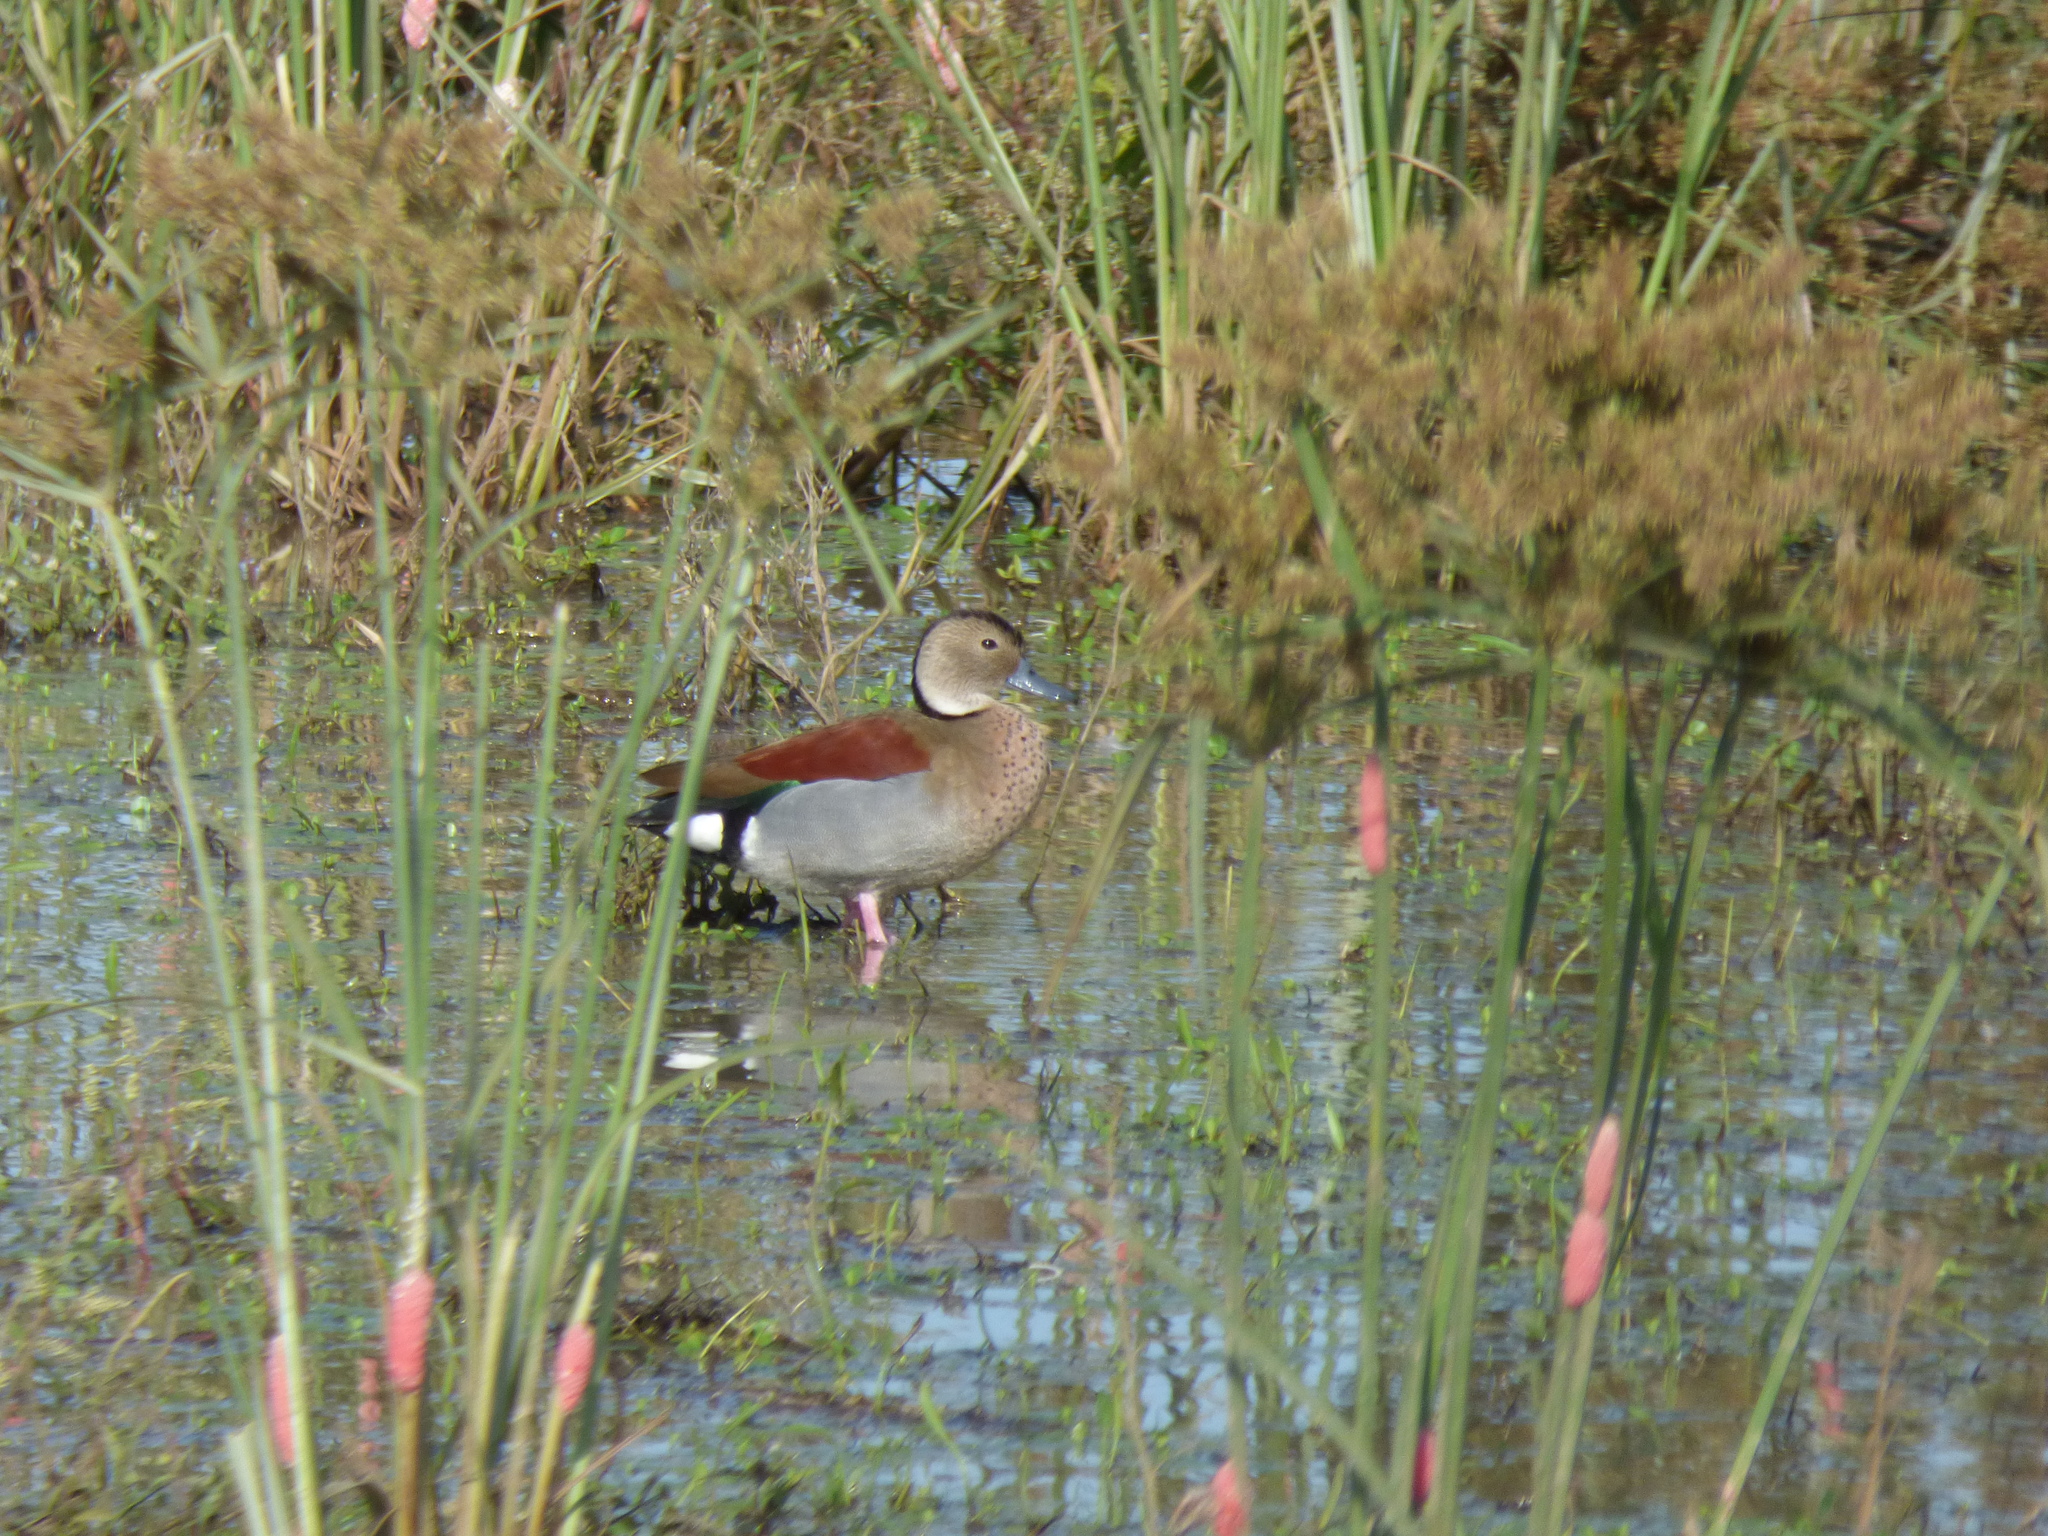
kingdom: Animalia
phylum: Chordata
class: Aves
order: Anseriformes
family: Anatidae
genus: Callonetta
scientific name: Callonetta leucophrys
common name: Ringed teal
